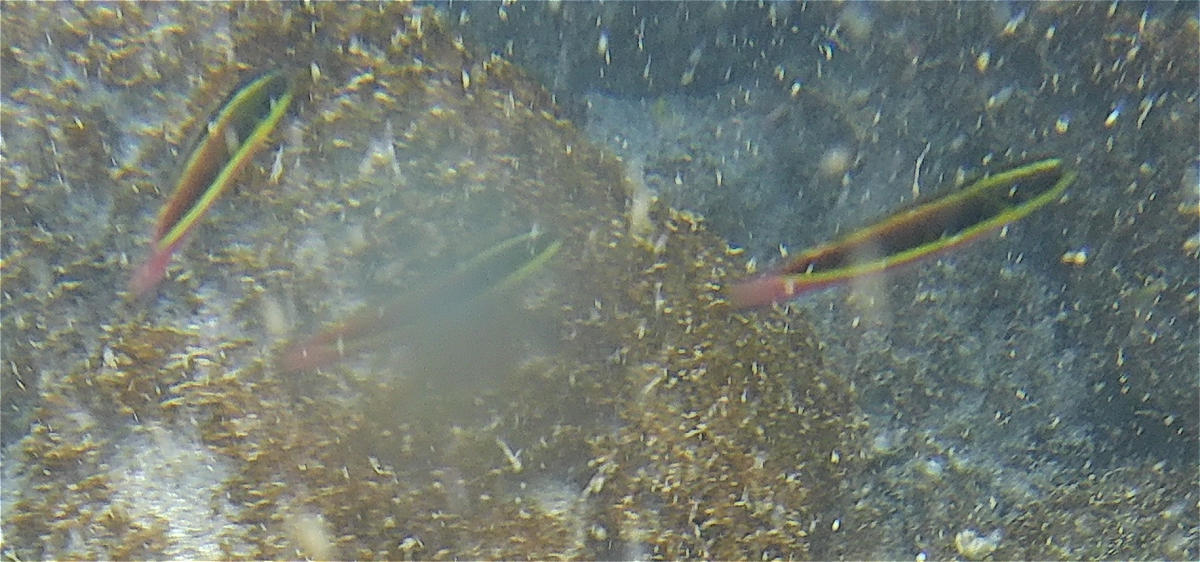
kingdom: Animalia
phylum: Chordata
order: Perciformes
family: Labridae
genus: Thalassoma
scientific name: Thalassoma lucasanum
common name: Cortez rainbow wrasse
